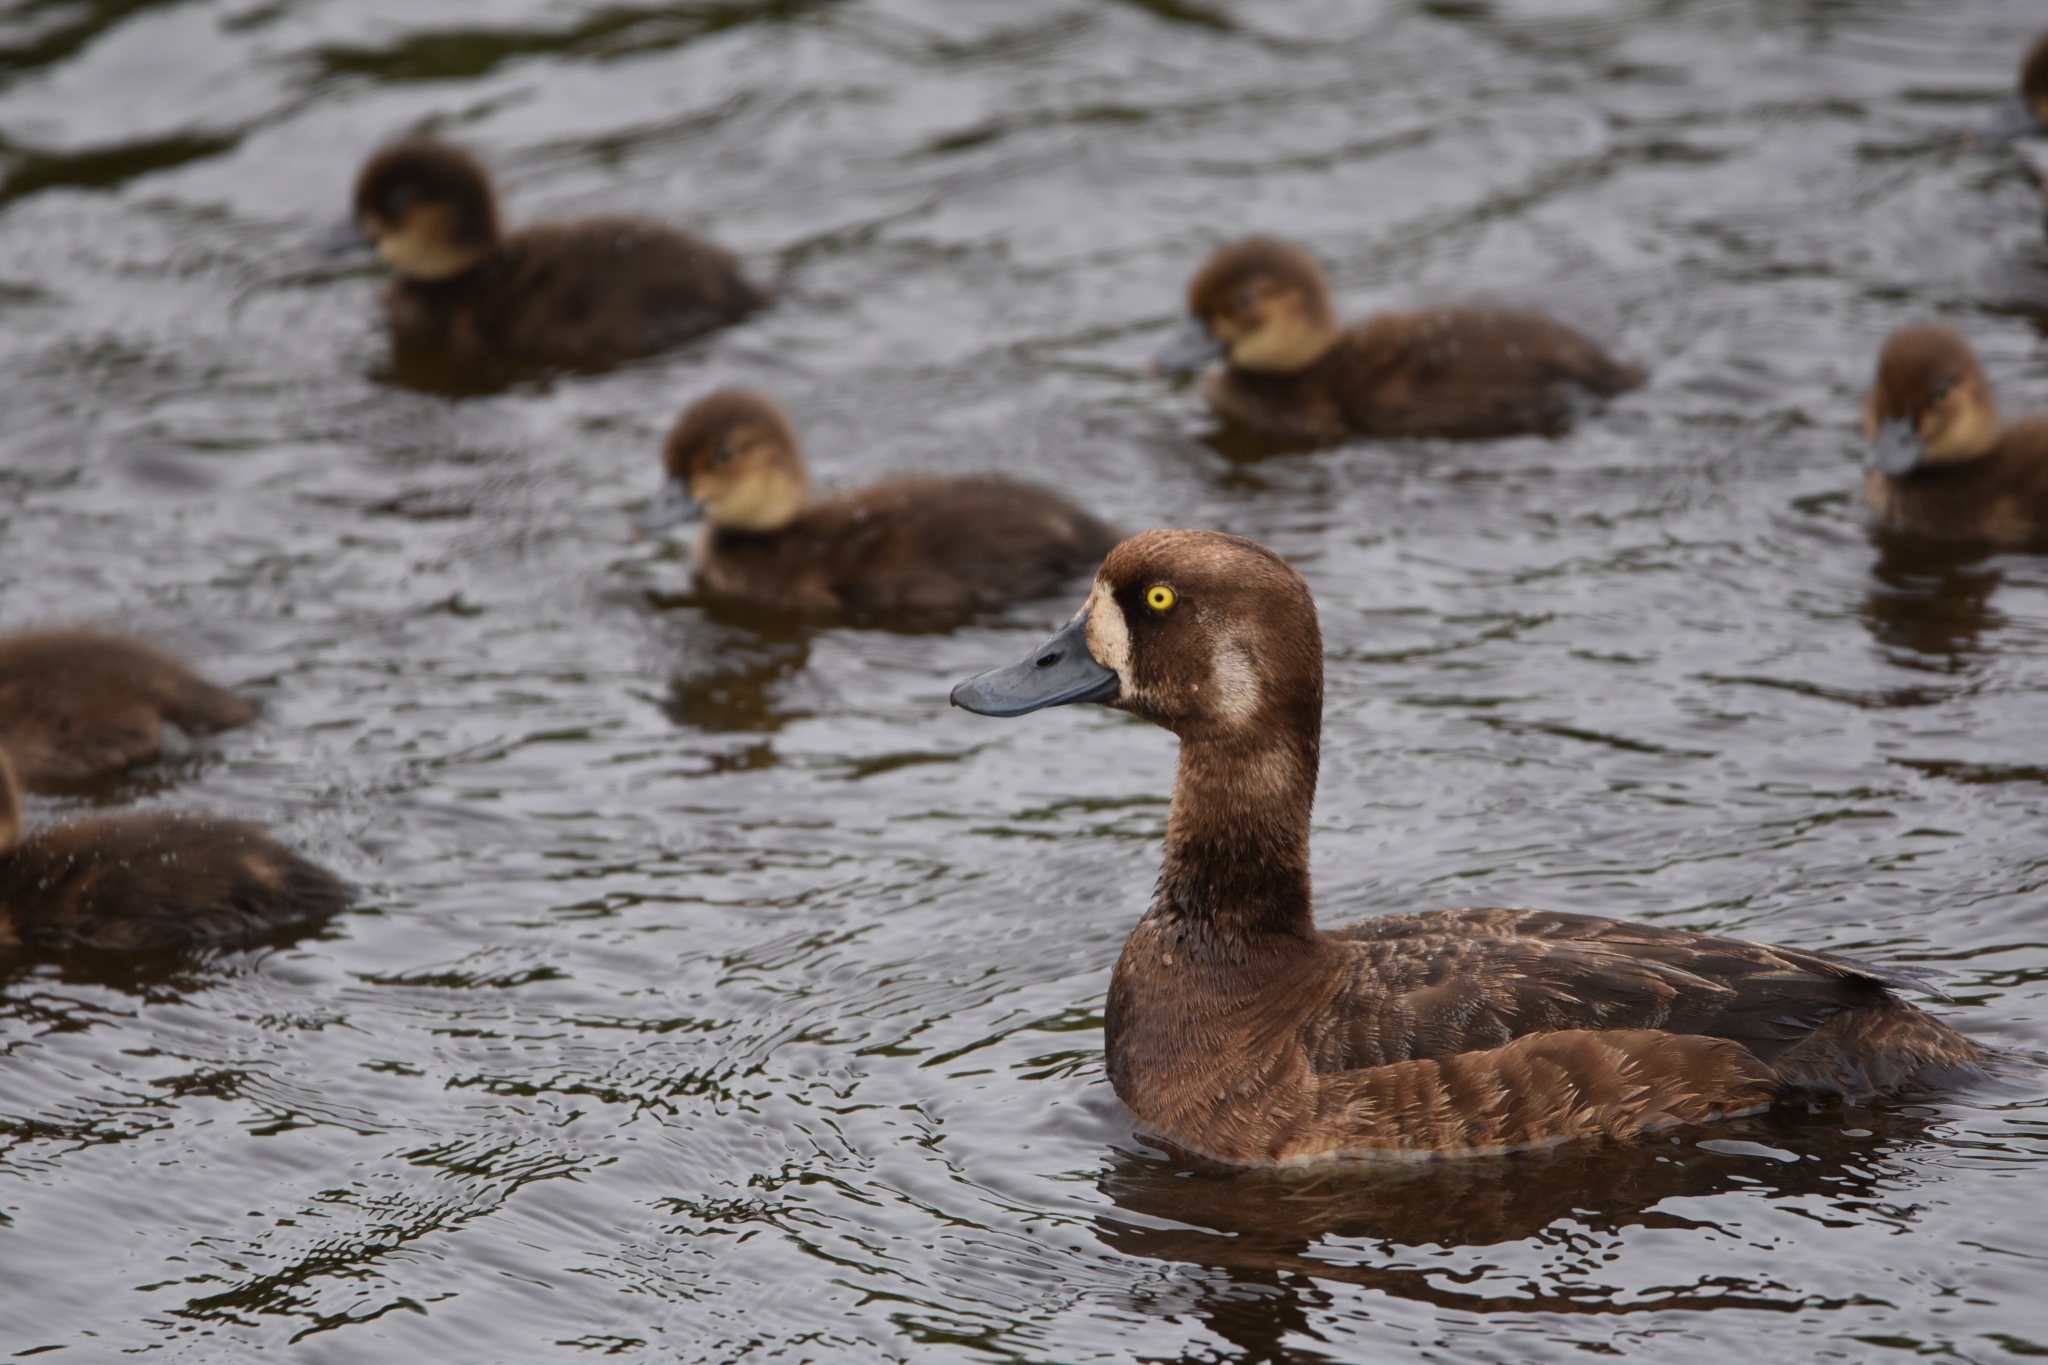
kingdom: Animalia
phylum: Chordata
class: Aves
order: Anseriformes
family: Anatidae
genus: Aythya
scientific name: Aythya marila
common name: Greater scaup
